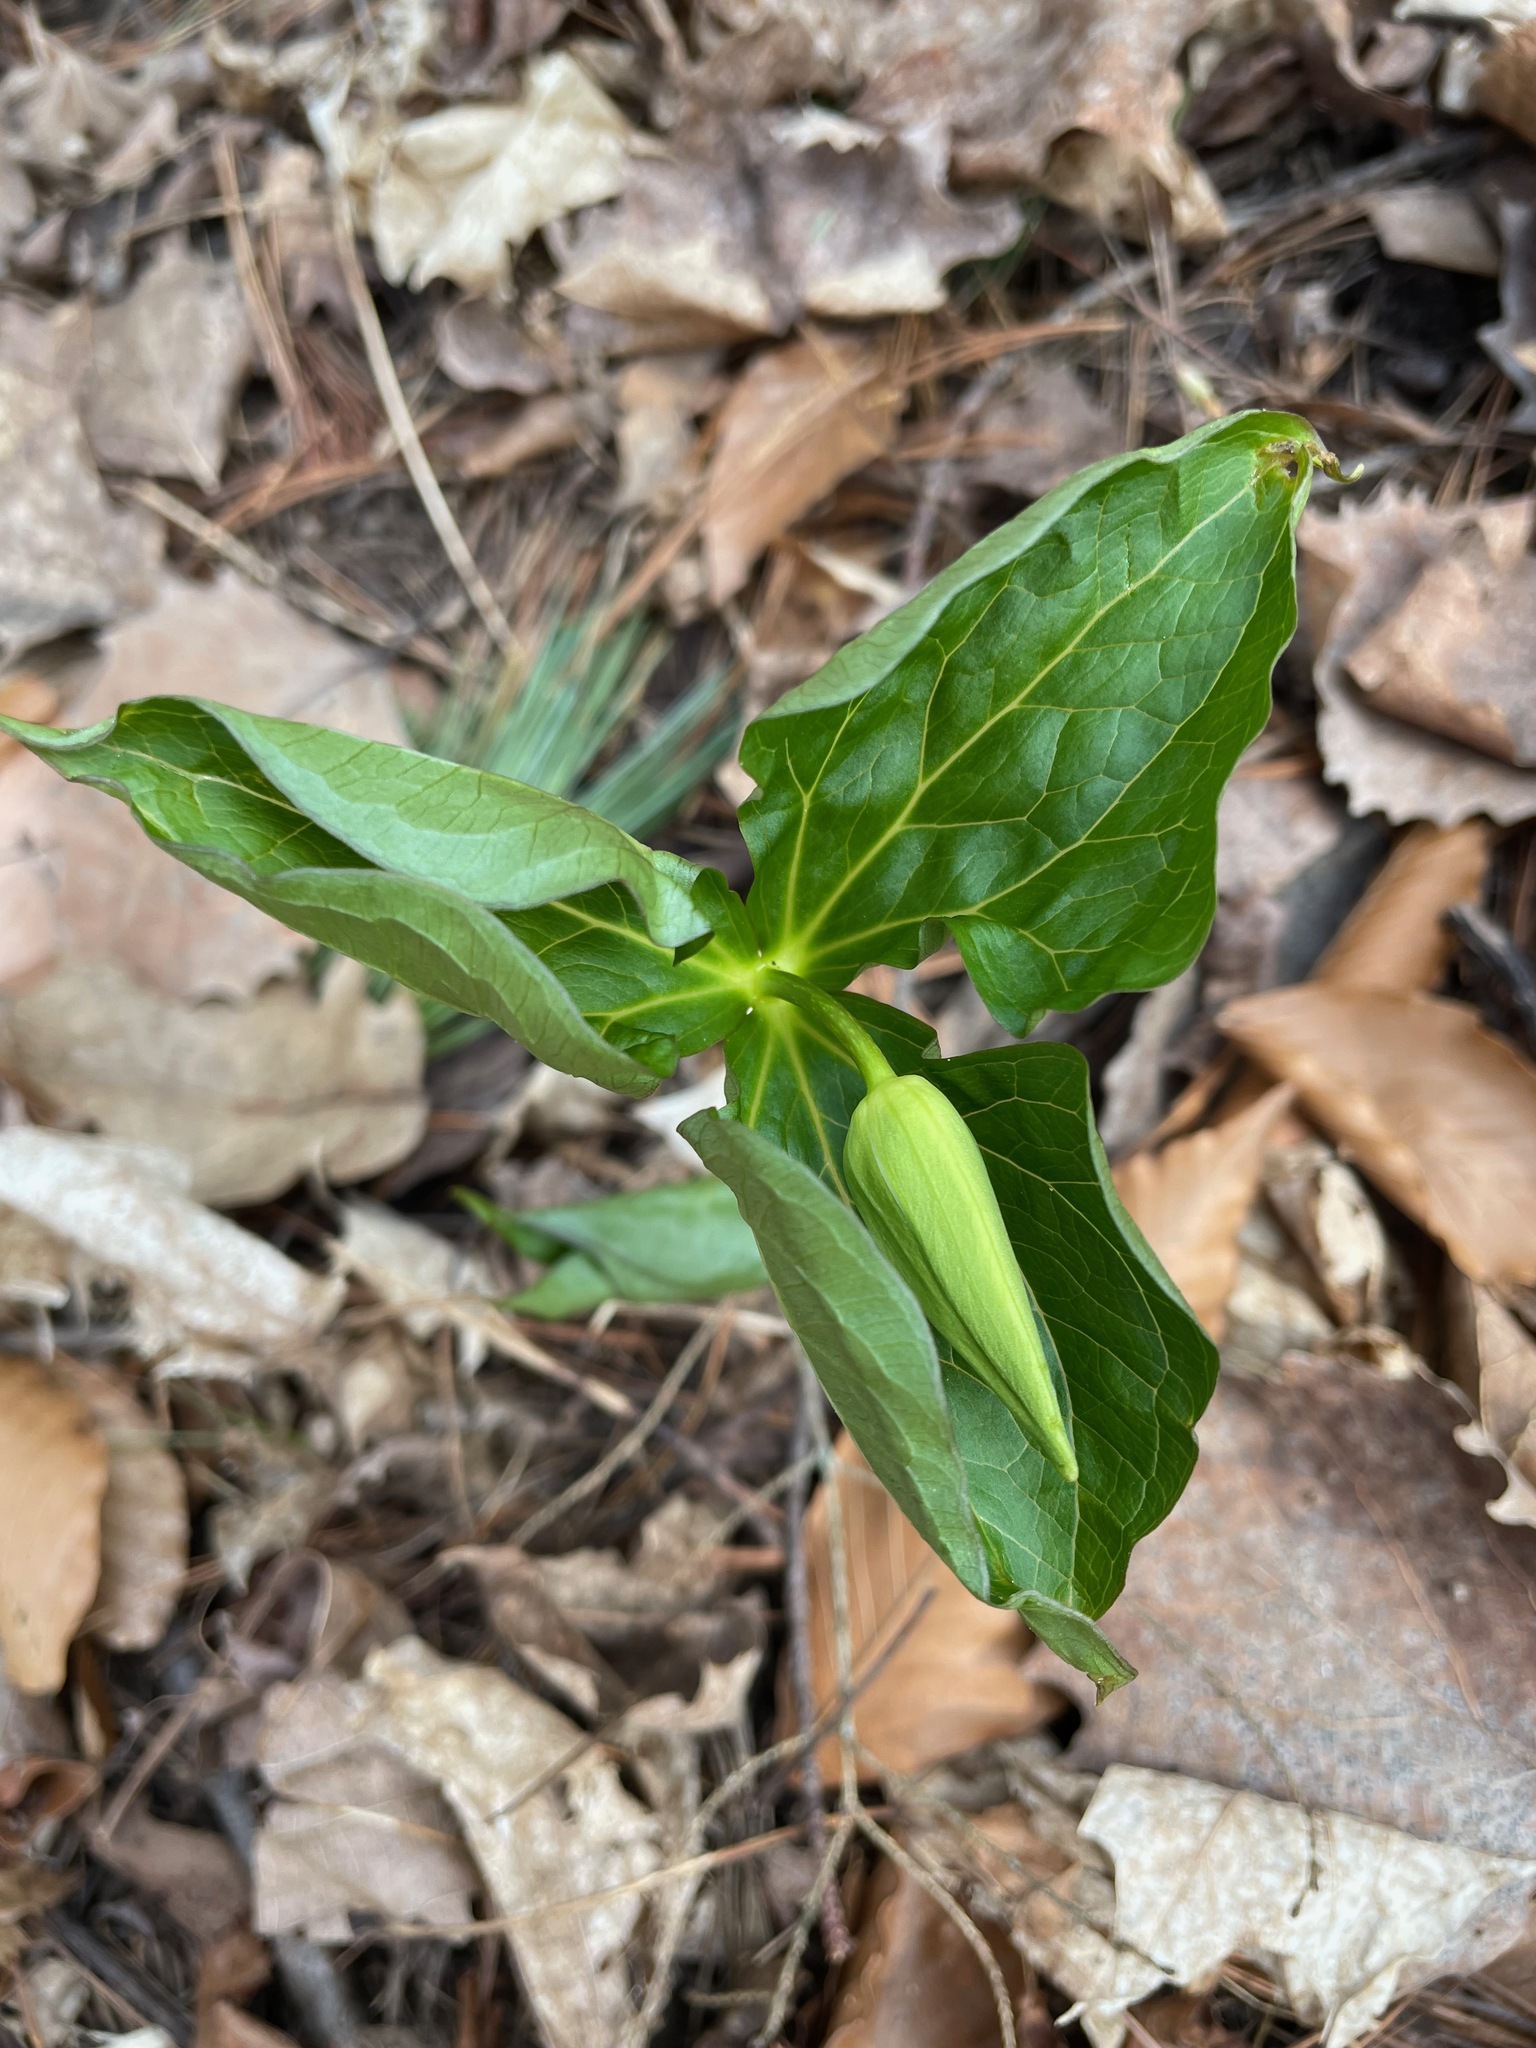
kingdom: Plantae
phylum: Tracheophyta
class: Liliopsida
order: Liliales
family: Melanthiaceae
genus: Trillium
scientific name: Trillium erectum
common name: Purple trillium
